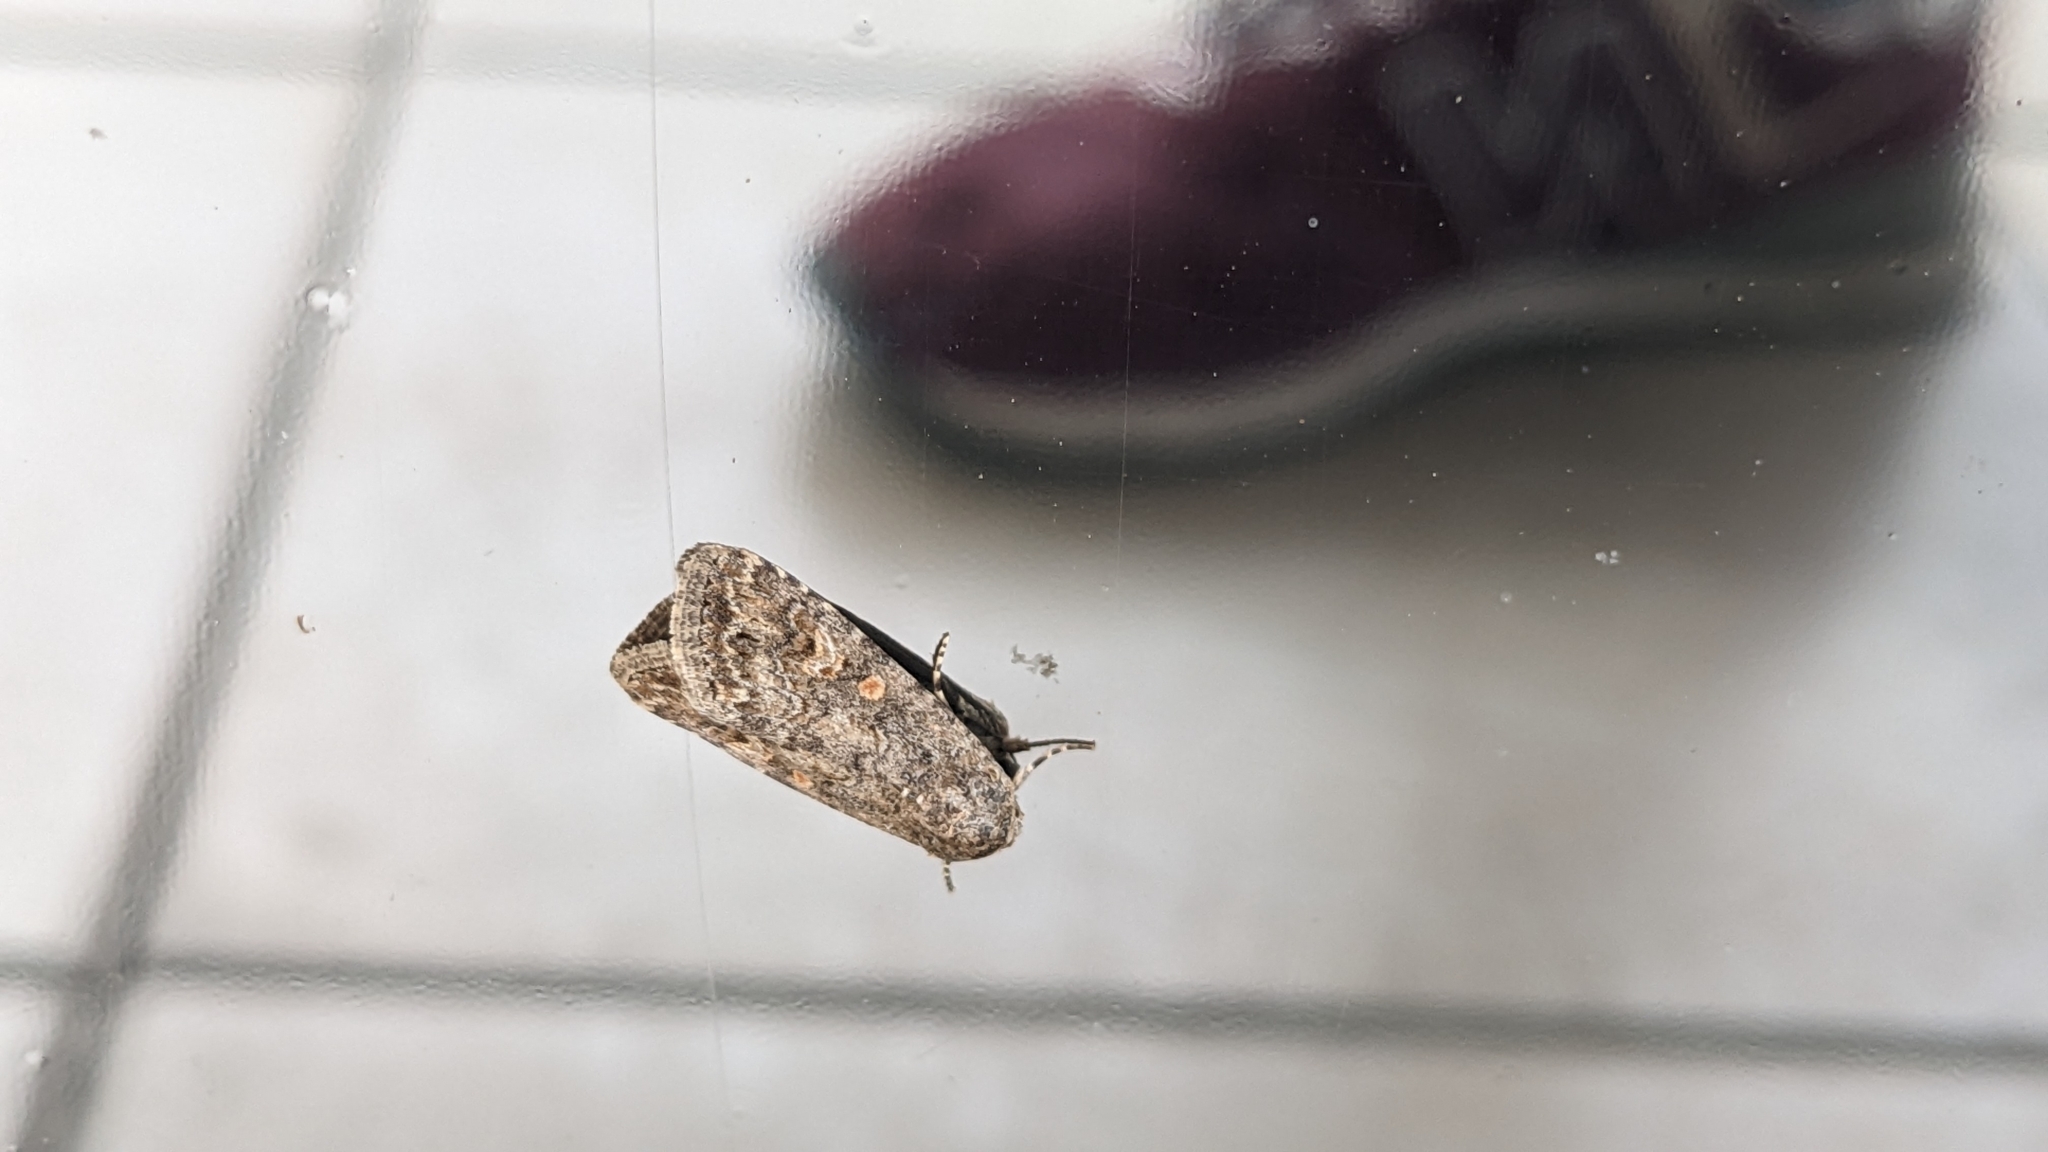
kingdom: Animalia
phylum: Arthropoda
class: Insecta
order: Lepidoptera
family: Noctuidae
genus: Spodoptera
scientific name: Spodoptera exigua
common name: Beet armyworm
